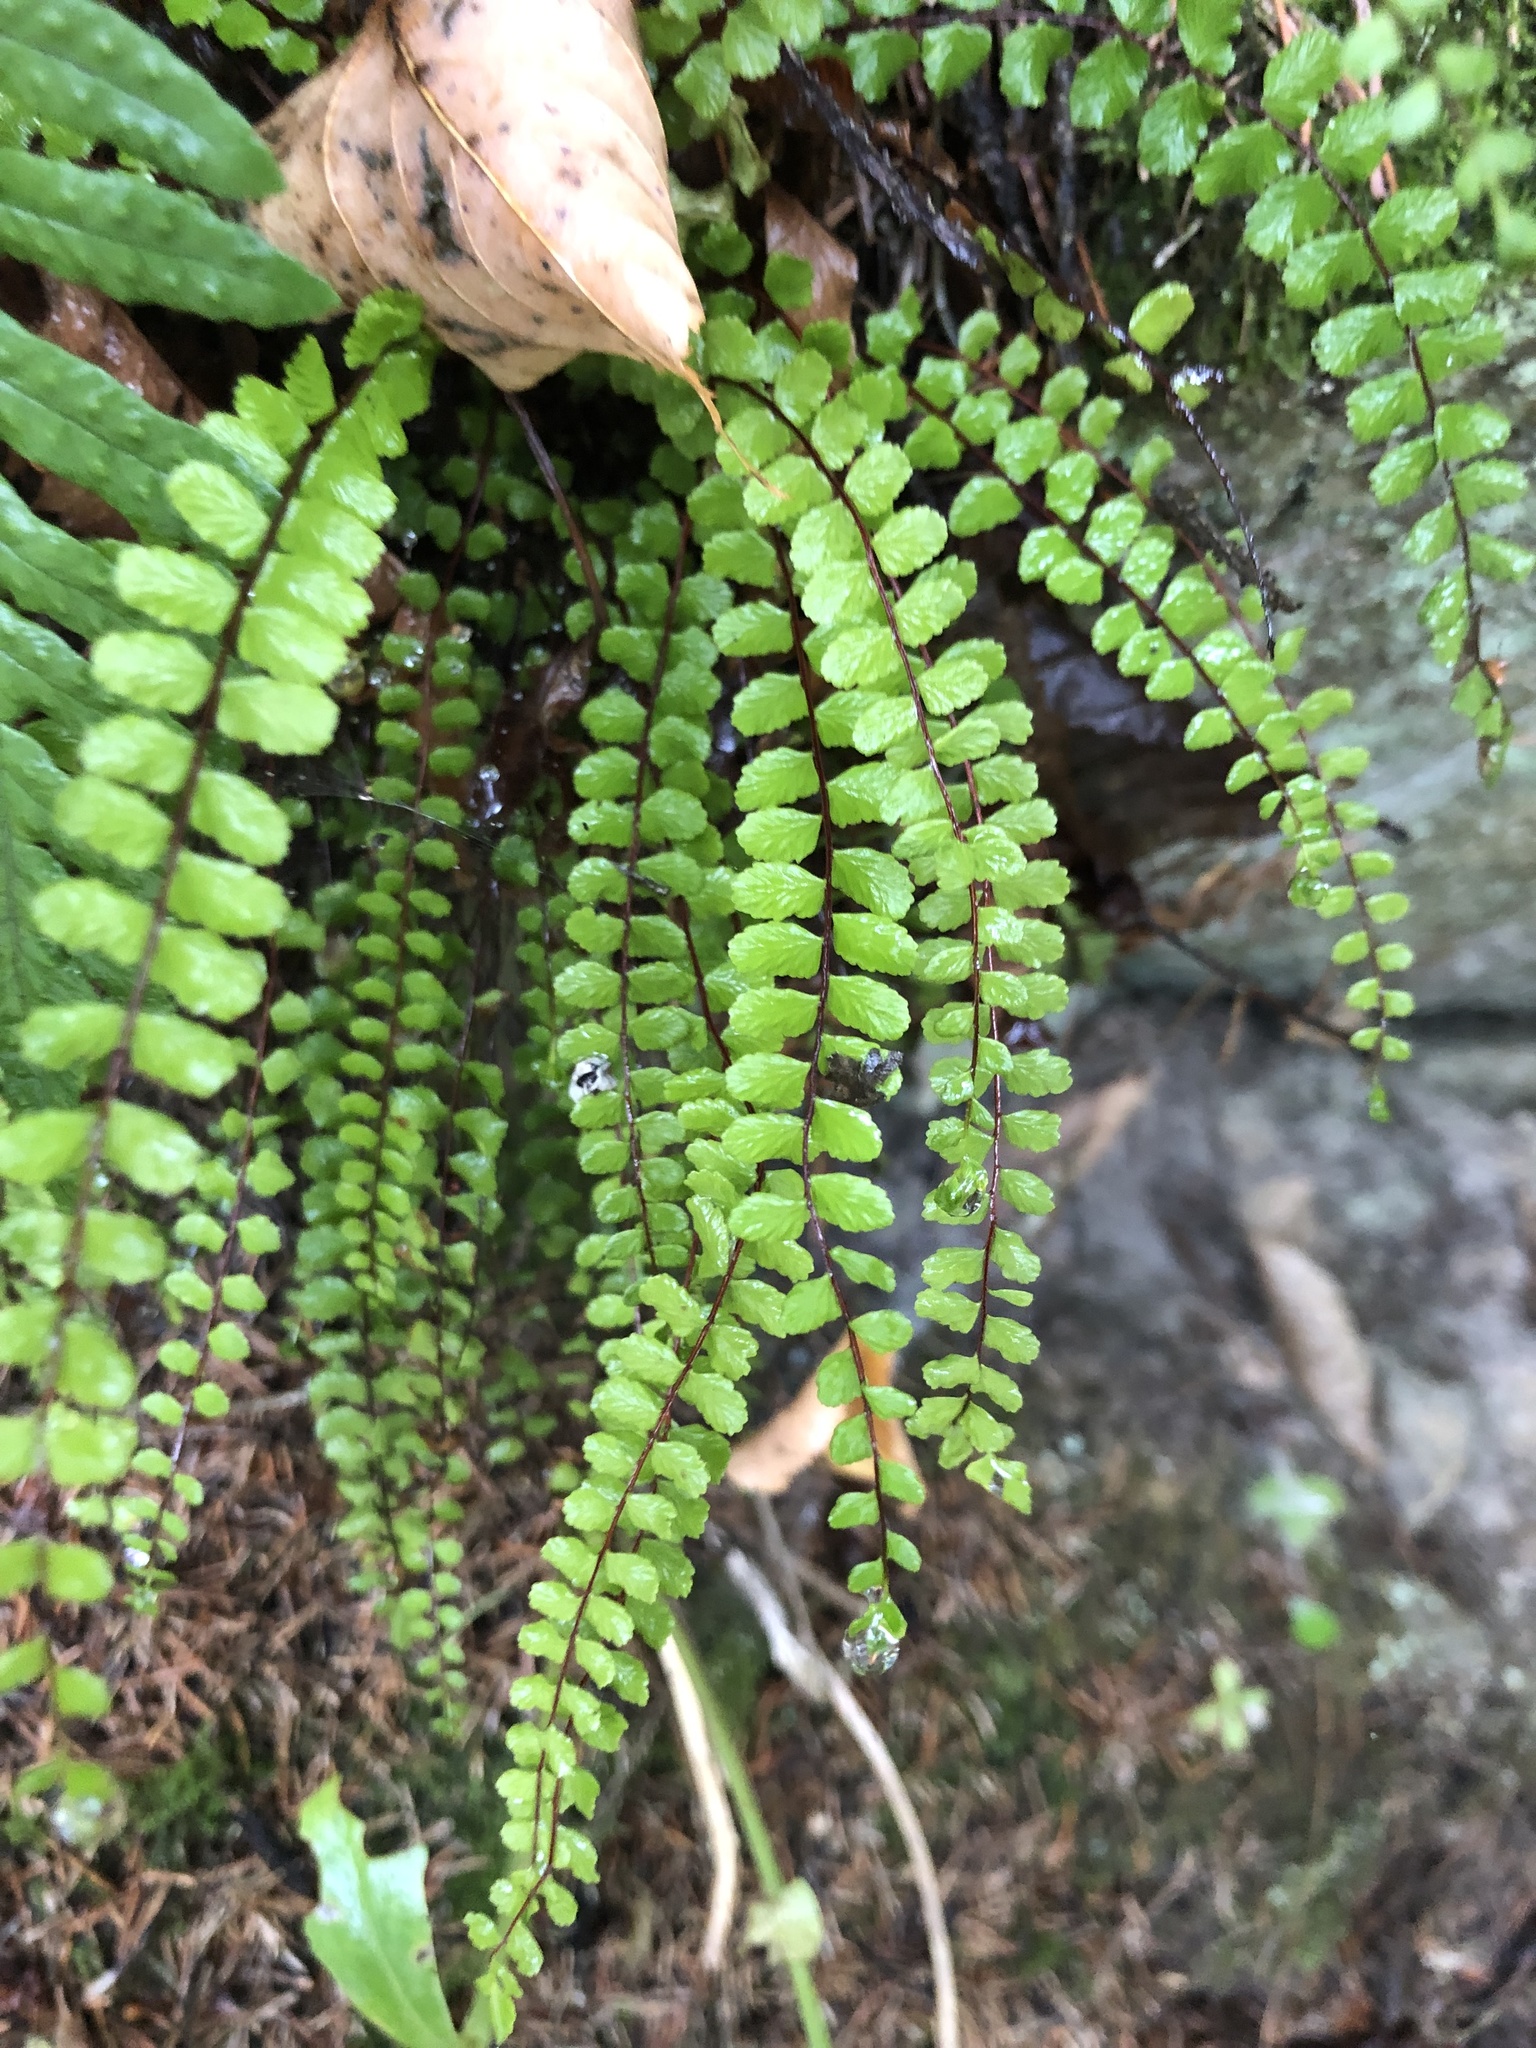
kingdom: Plantae
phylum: Tracheophyta
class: Polypodiopsida
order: Polypodiales
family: Aspleniaceae
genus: Asplenium
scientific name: Asplenium trichomanes
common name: Maidenhair spleenwort
